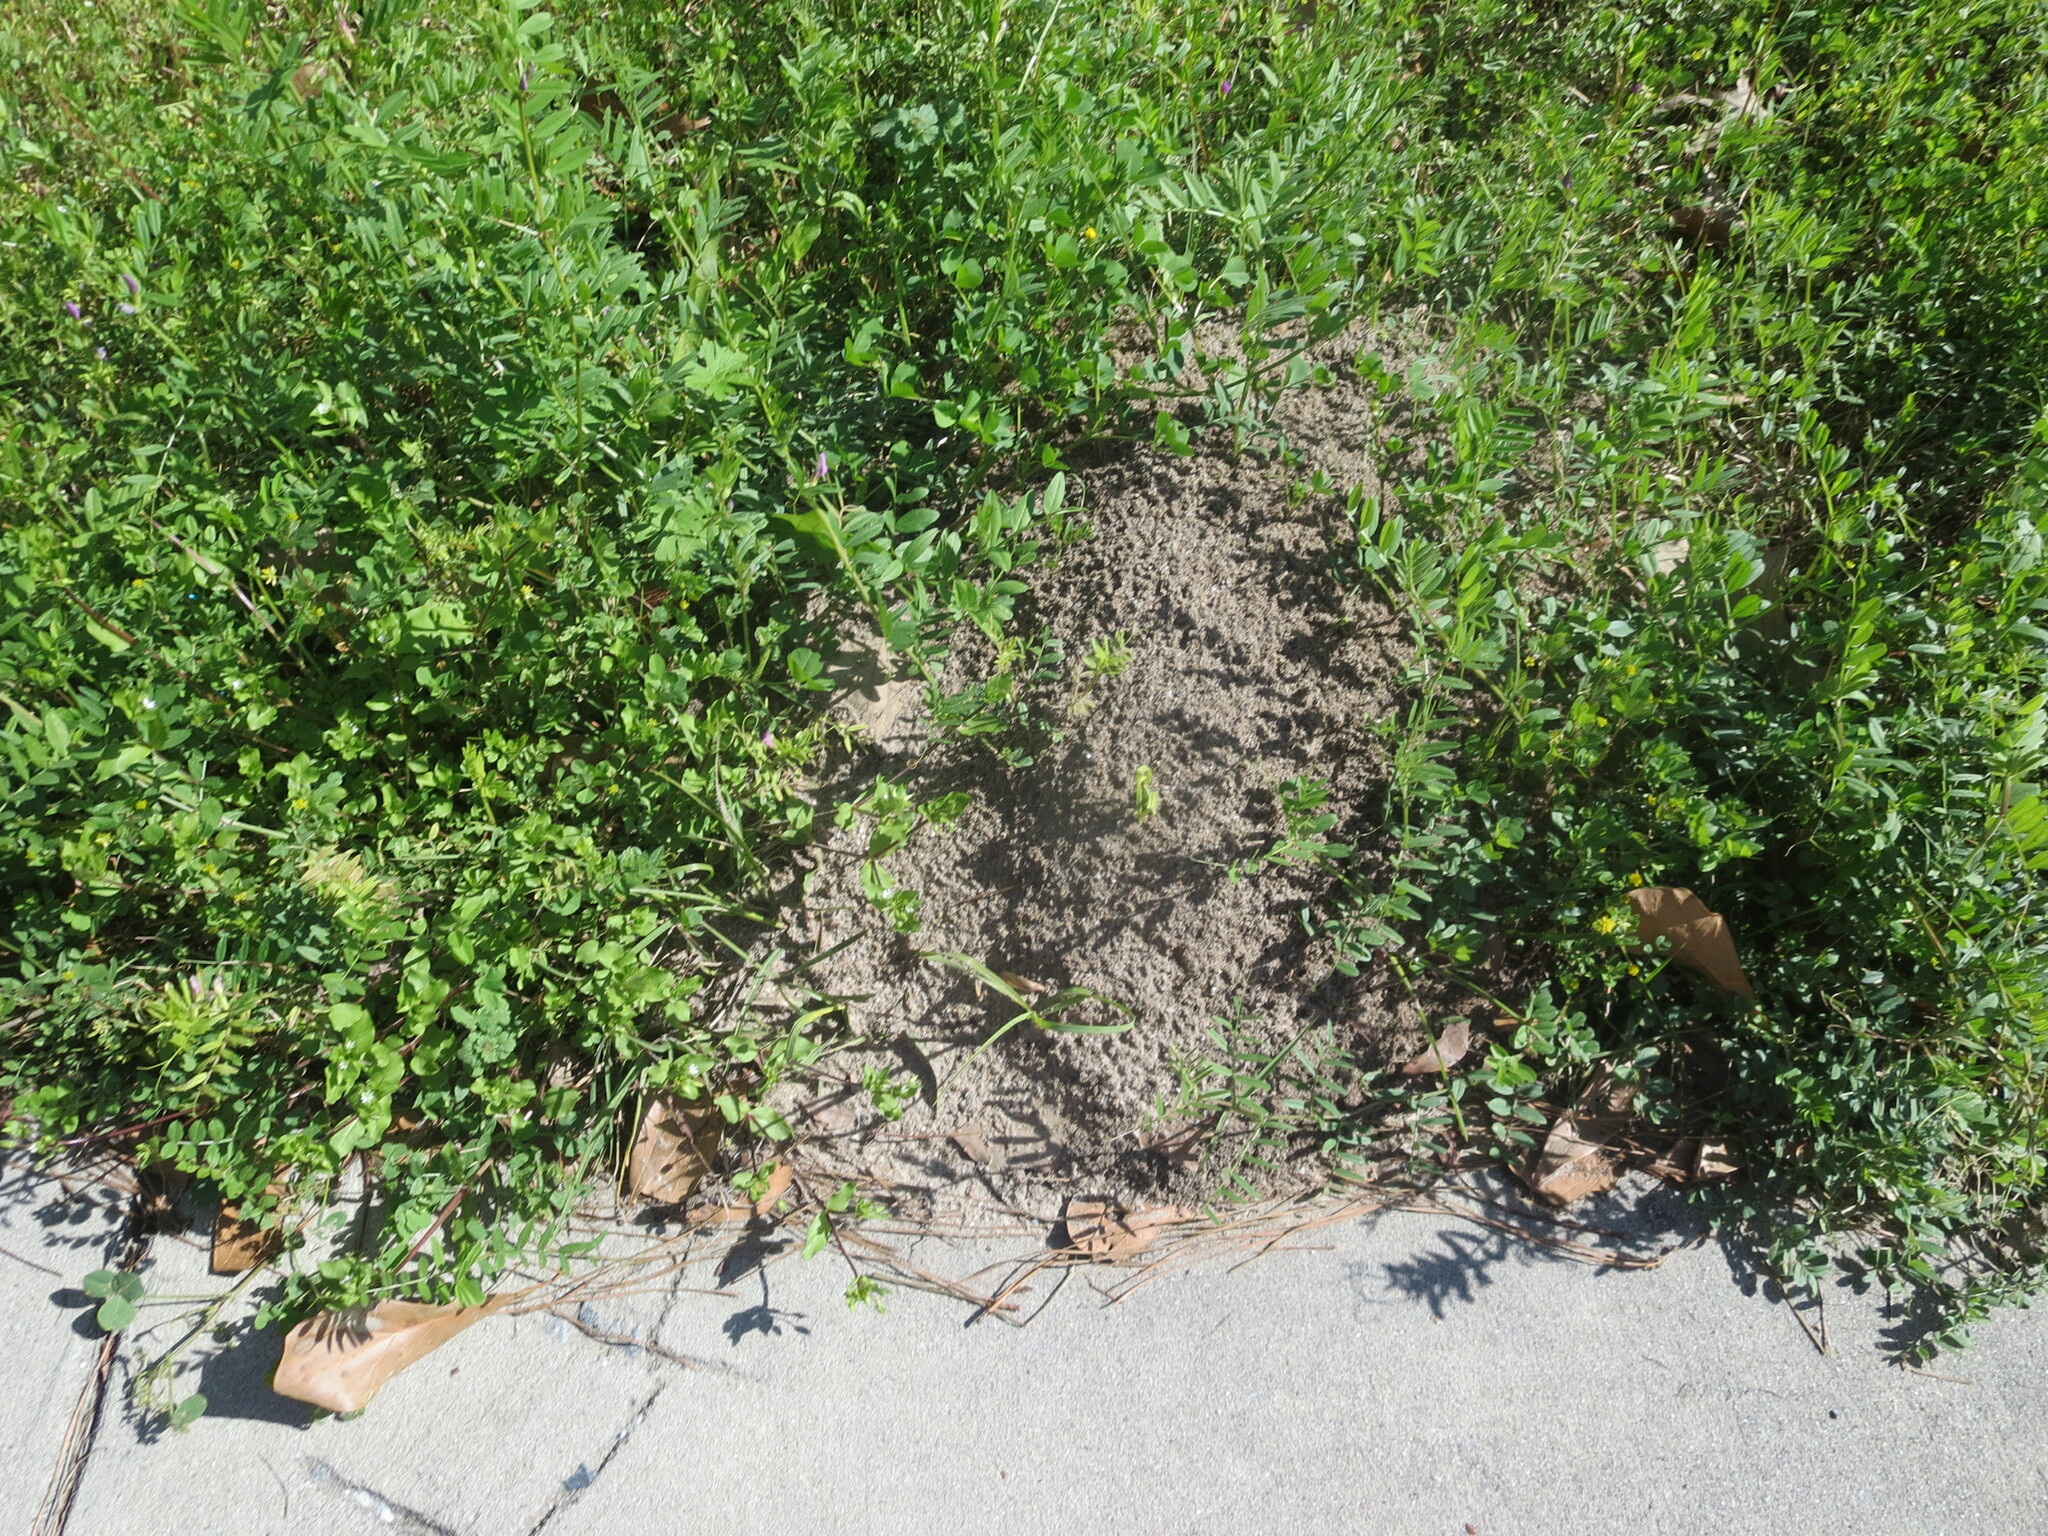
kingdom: Animalia
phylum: Arthropoda
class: Insecta
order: Hymenoptera
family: Formicidae
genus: Solenopsis
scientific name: Solenopsis invicta
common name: Red imported fire ant
